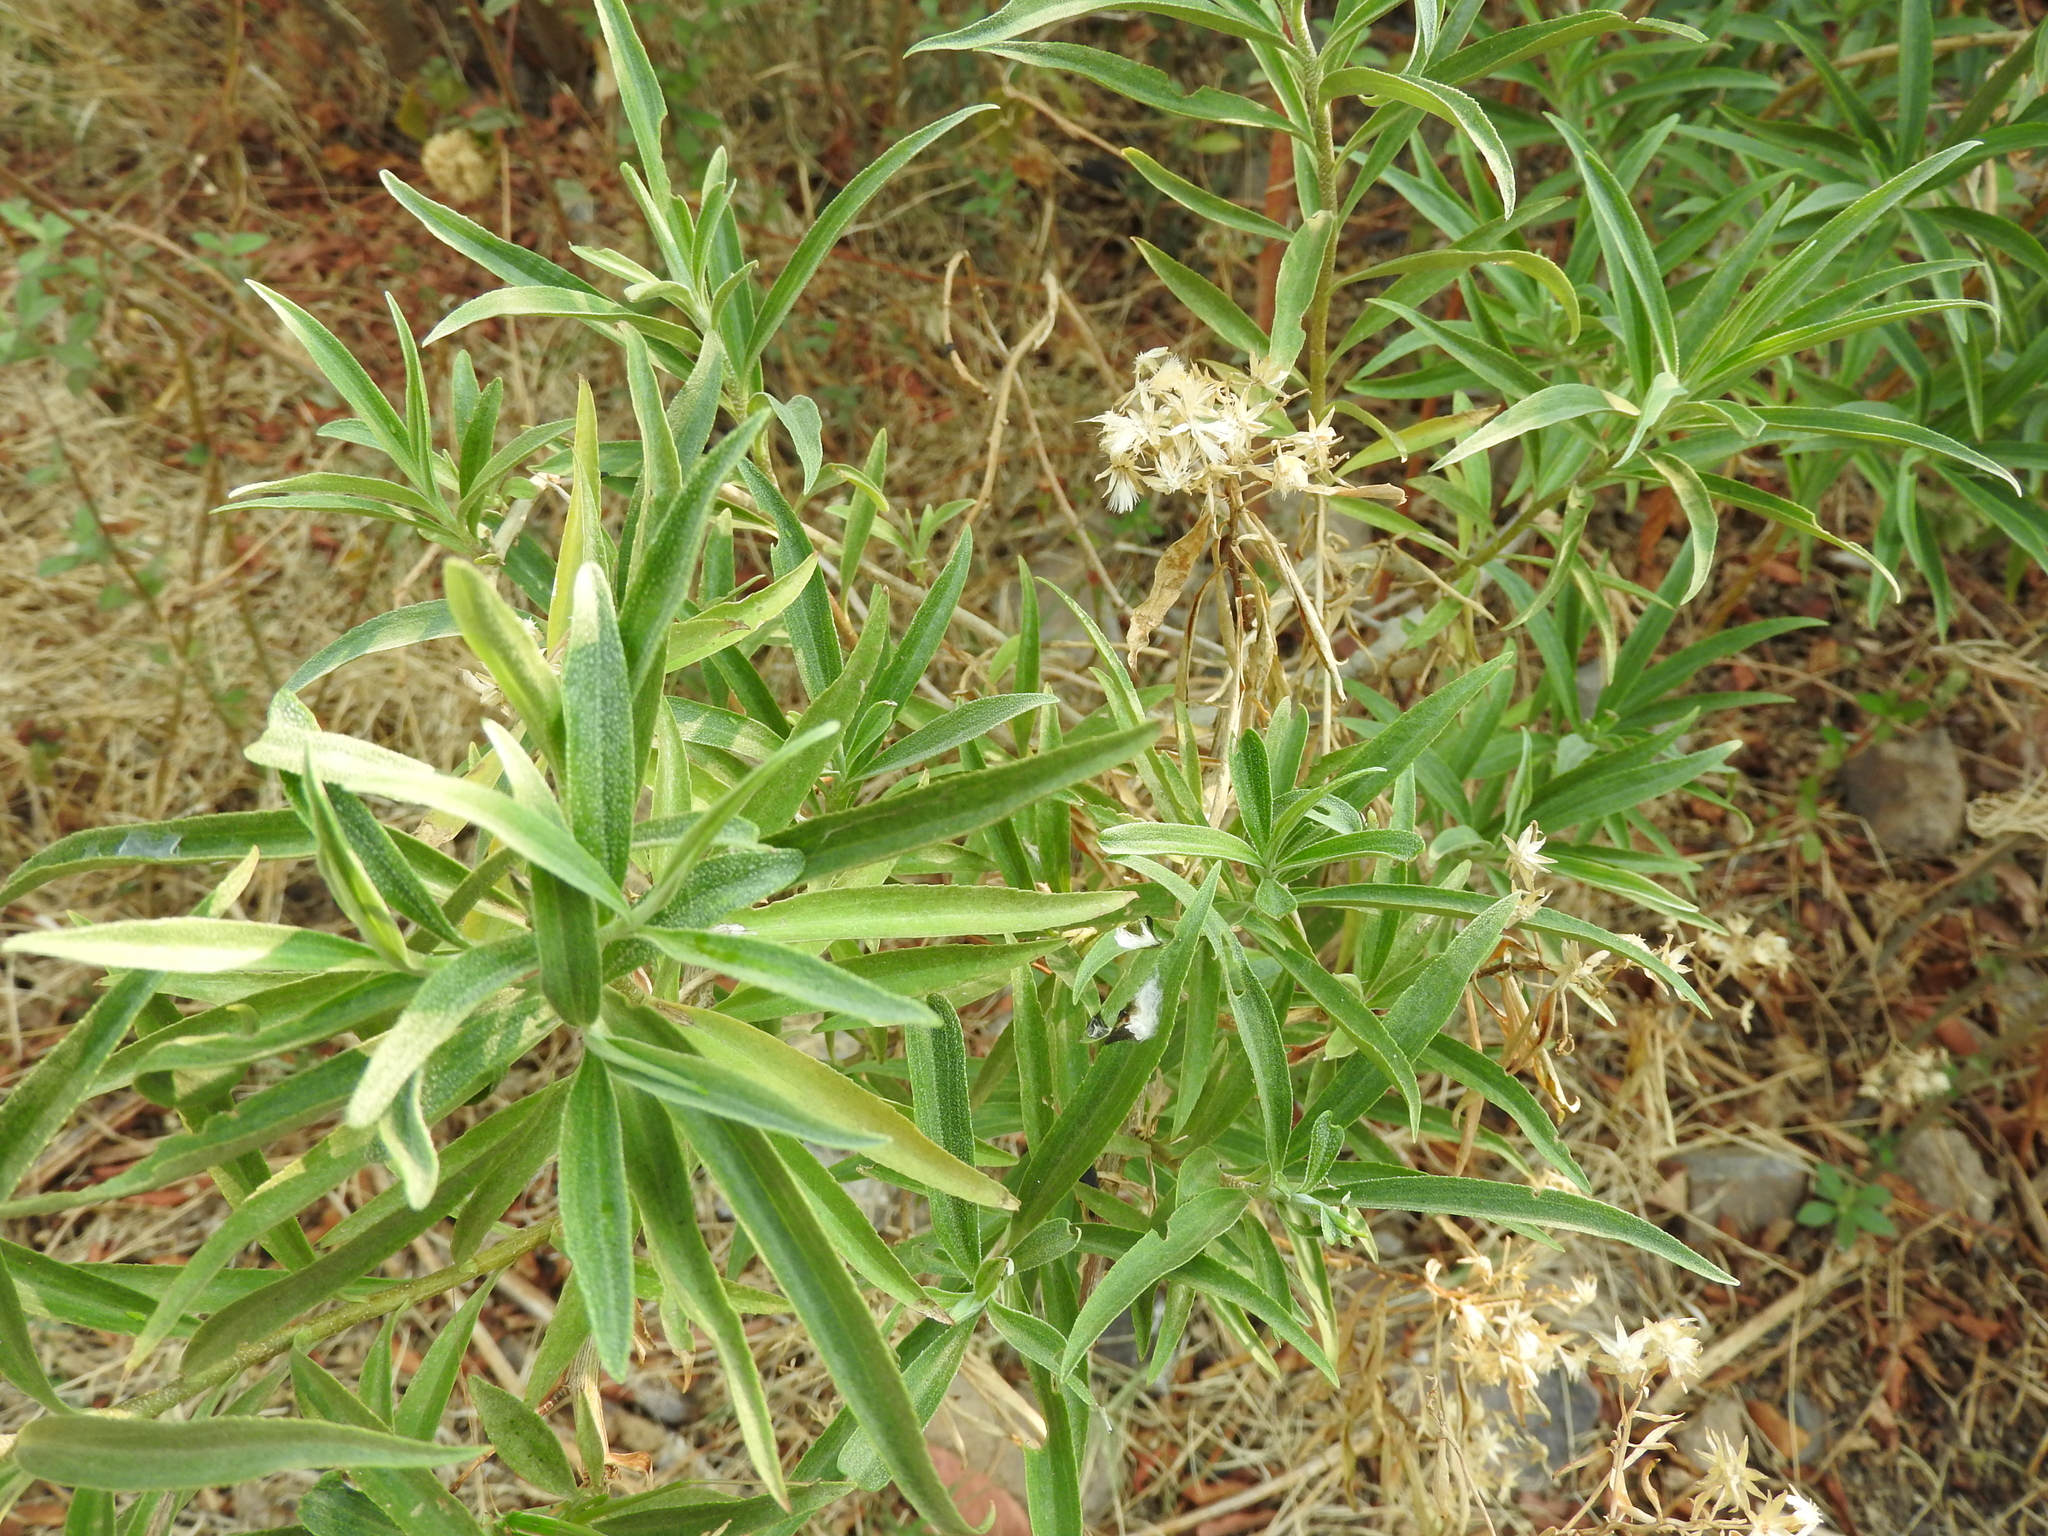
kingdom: Plantae
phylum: Tracheophyta
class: Magnoliopsida
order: Asterales
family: Asteraceae
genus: Barkleyanthus
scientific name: Barkleyanthus salicifolius
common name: Willow ragwort
